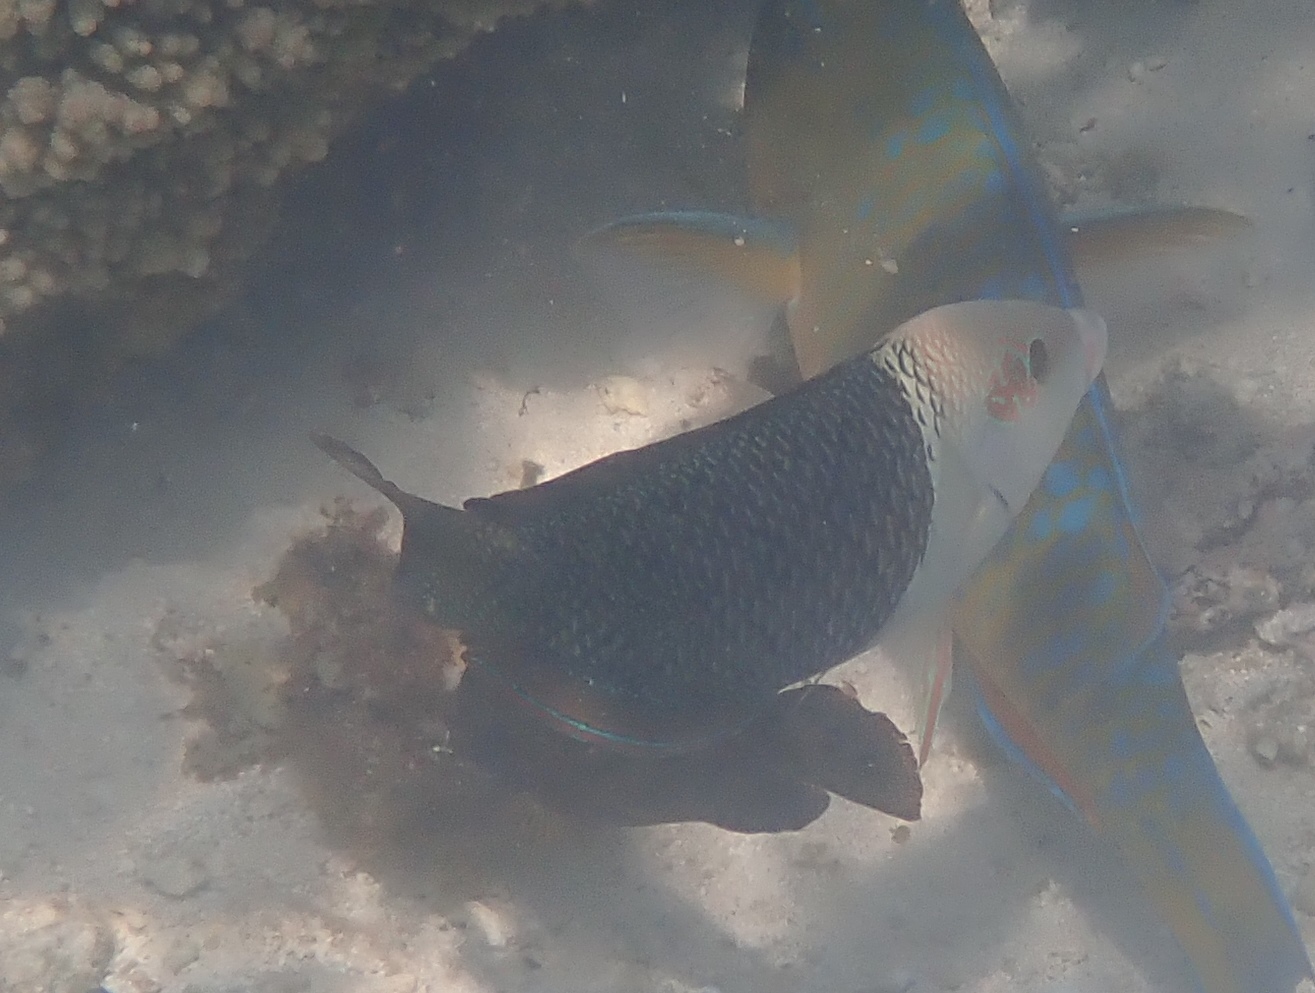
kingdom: Animalia
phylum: Chordata
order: Perciformes
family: Labridae
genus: Hemigymnus
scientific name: Hemigymnus melapterus
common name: Blackeye thicklip
